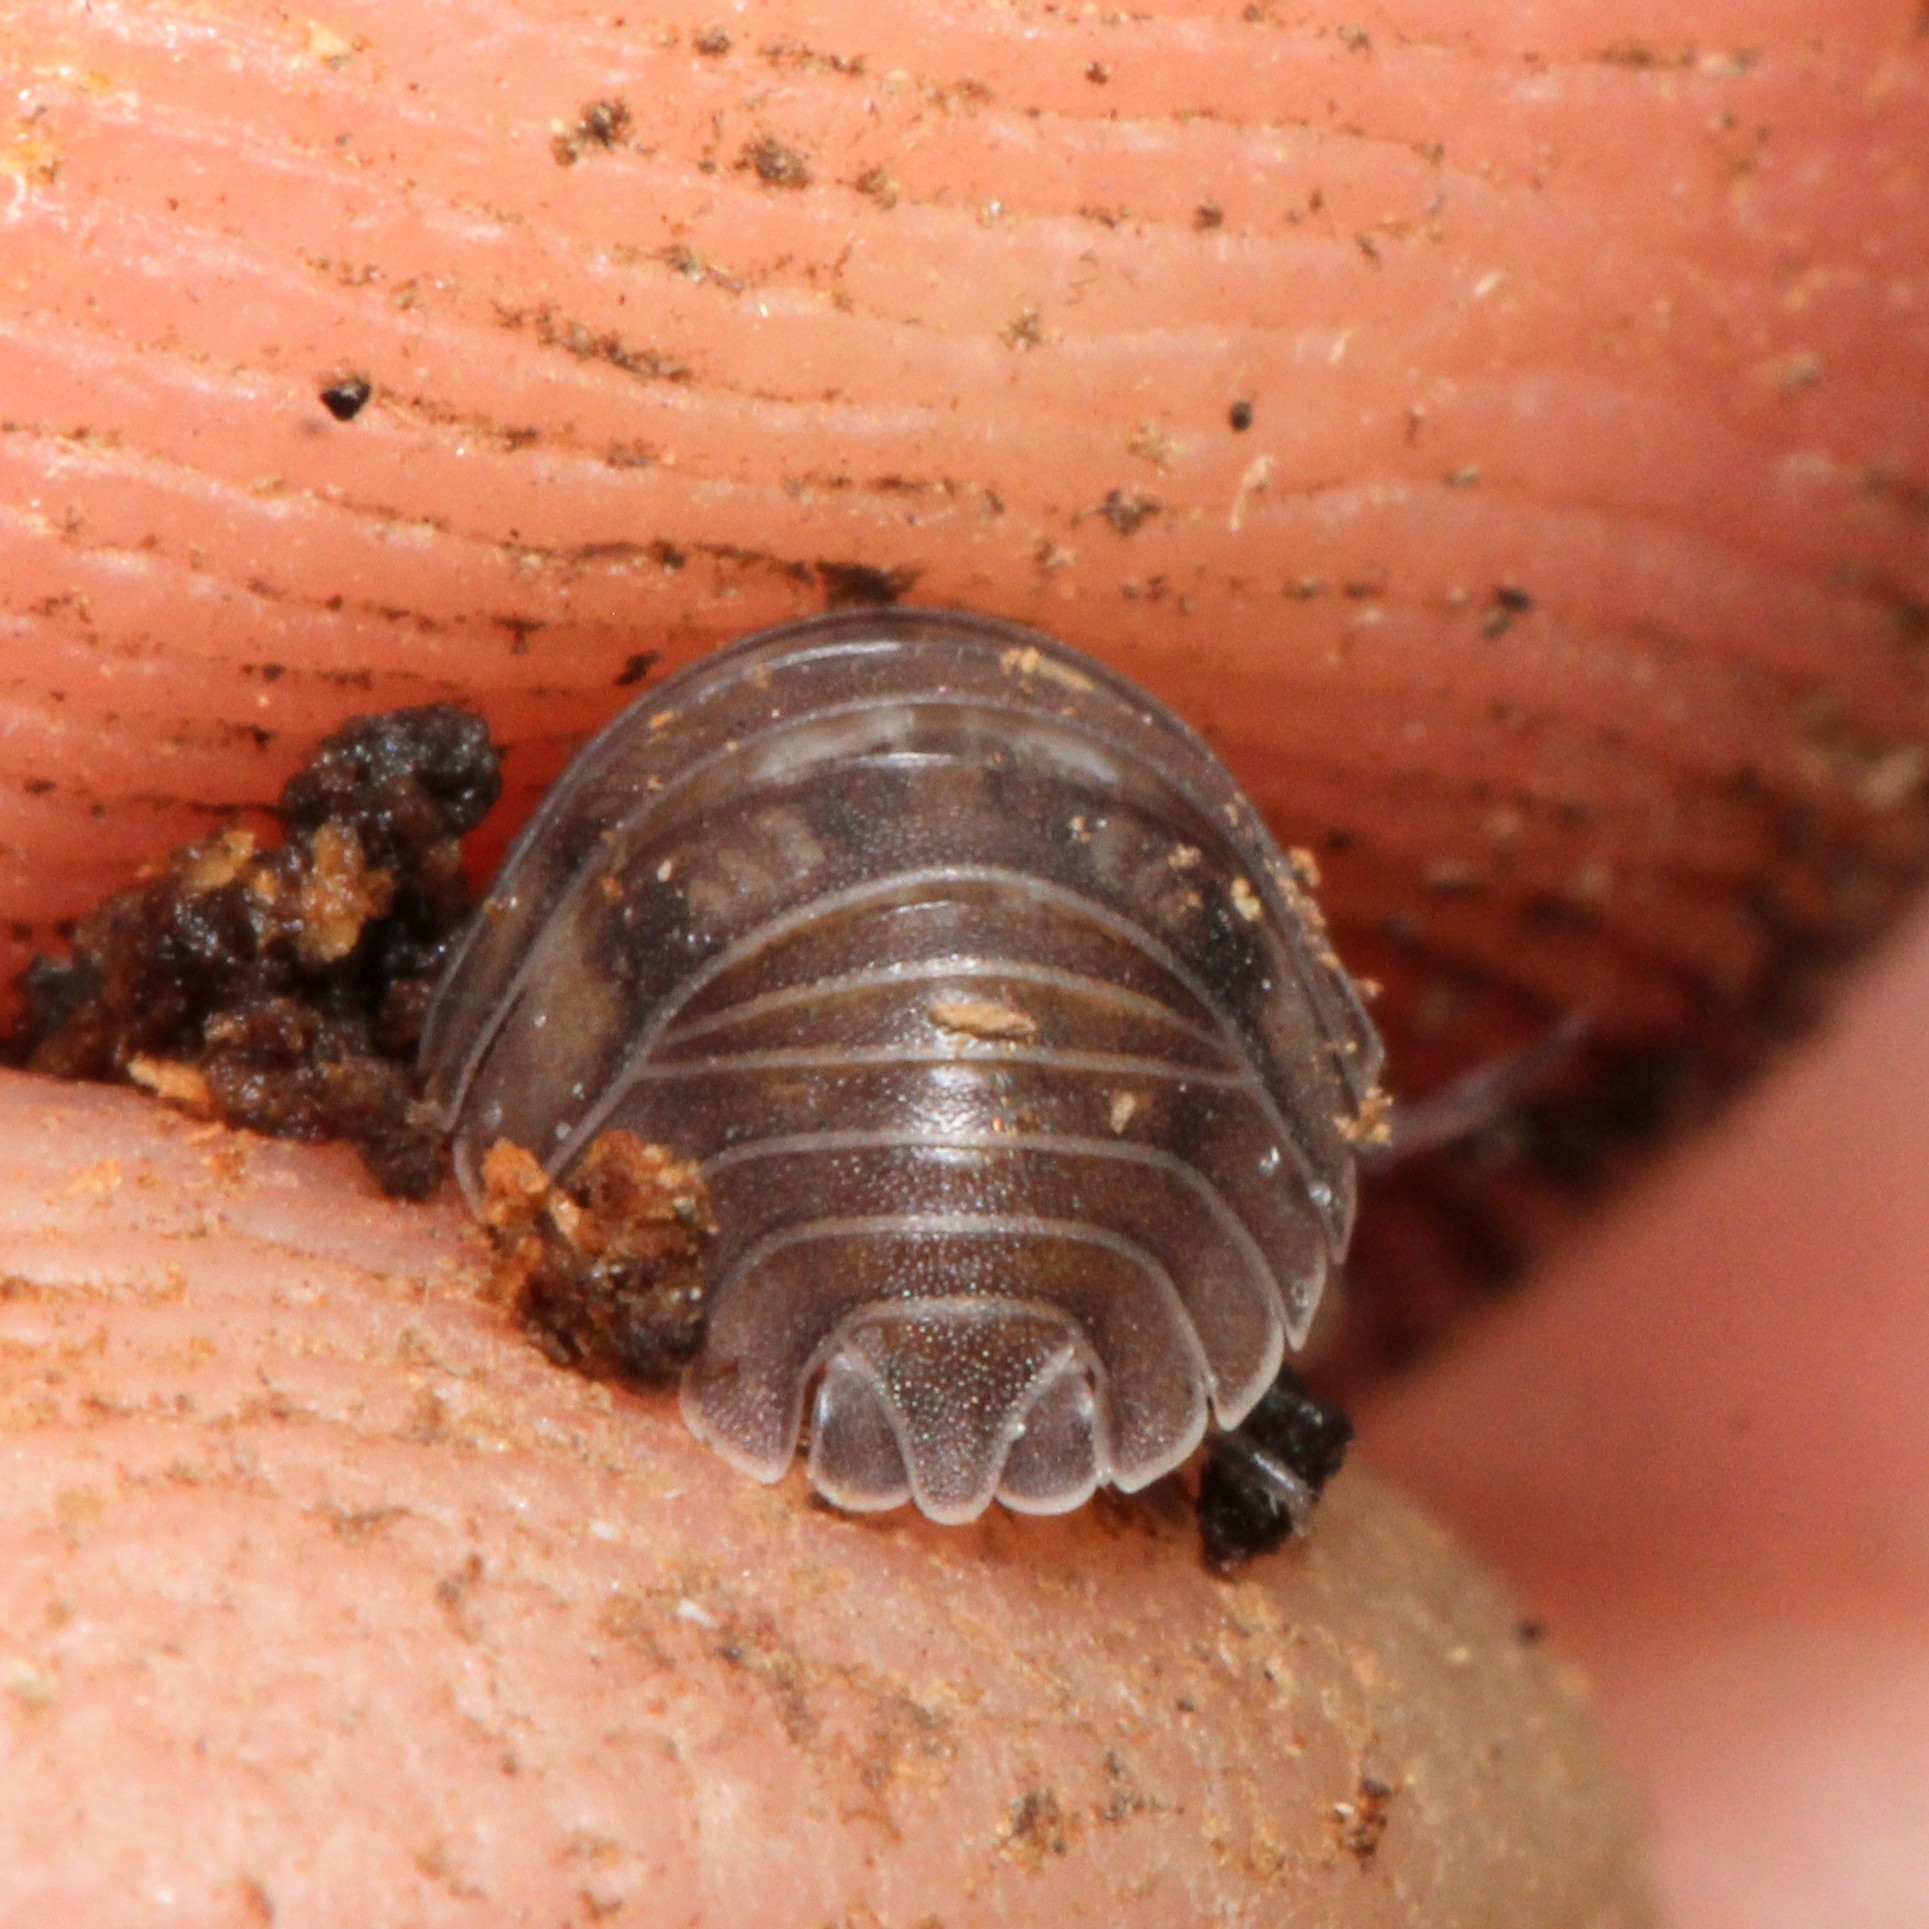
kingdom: Animalia
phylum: Arthropoda
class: Malacostraca
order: Isopoda
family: Armadillidiidae
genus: Armadillidium
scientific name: Armadillidium nasatum
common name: Isopod
